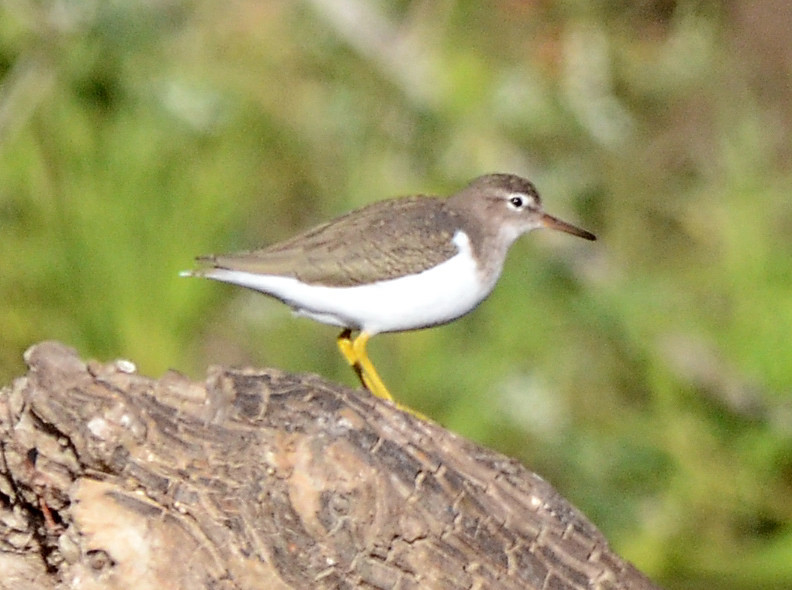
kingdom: Animalia
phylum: Chordata
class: Aves
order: Charadriiformes
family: Scolopacidae
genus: Actitis
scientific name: Actitis macularius
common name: Spotted sandpiper
